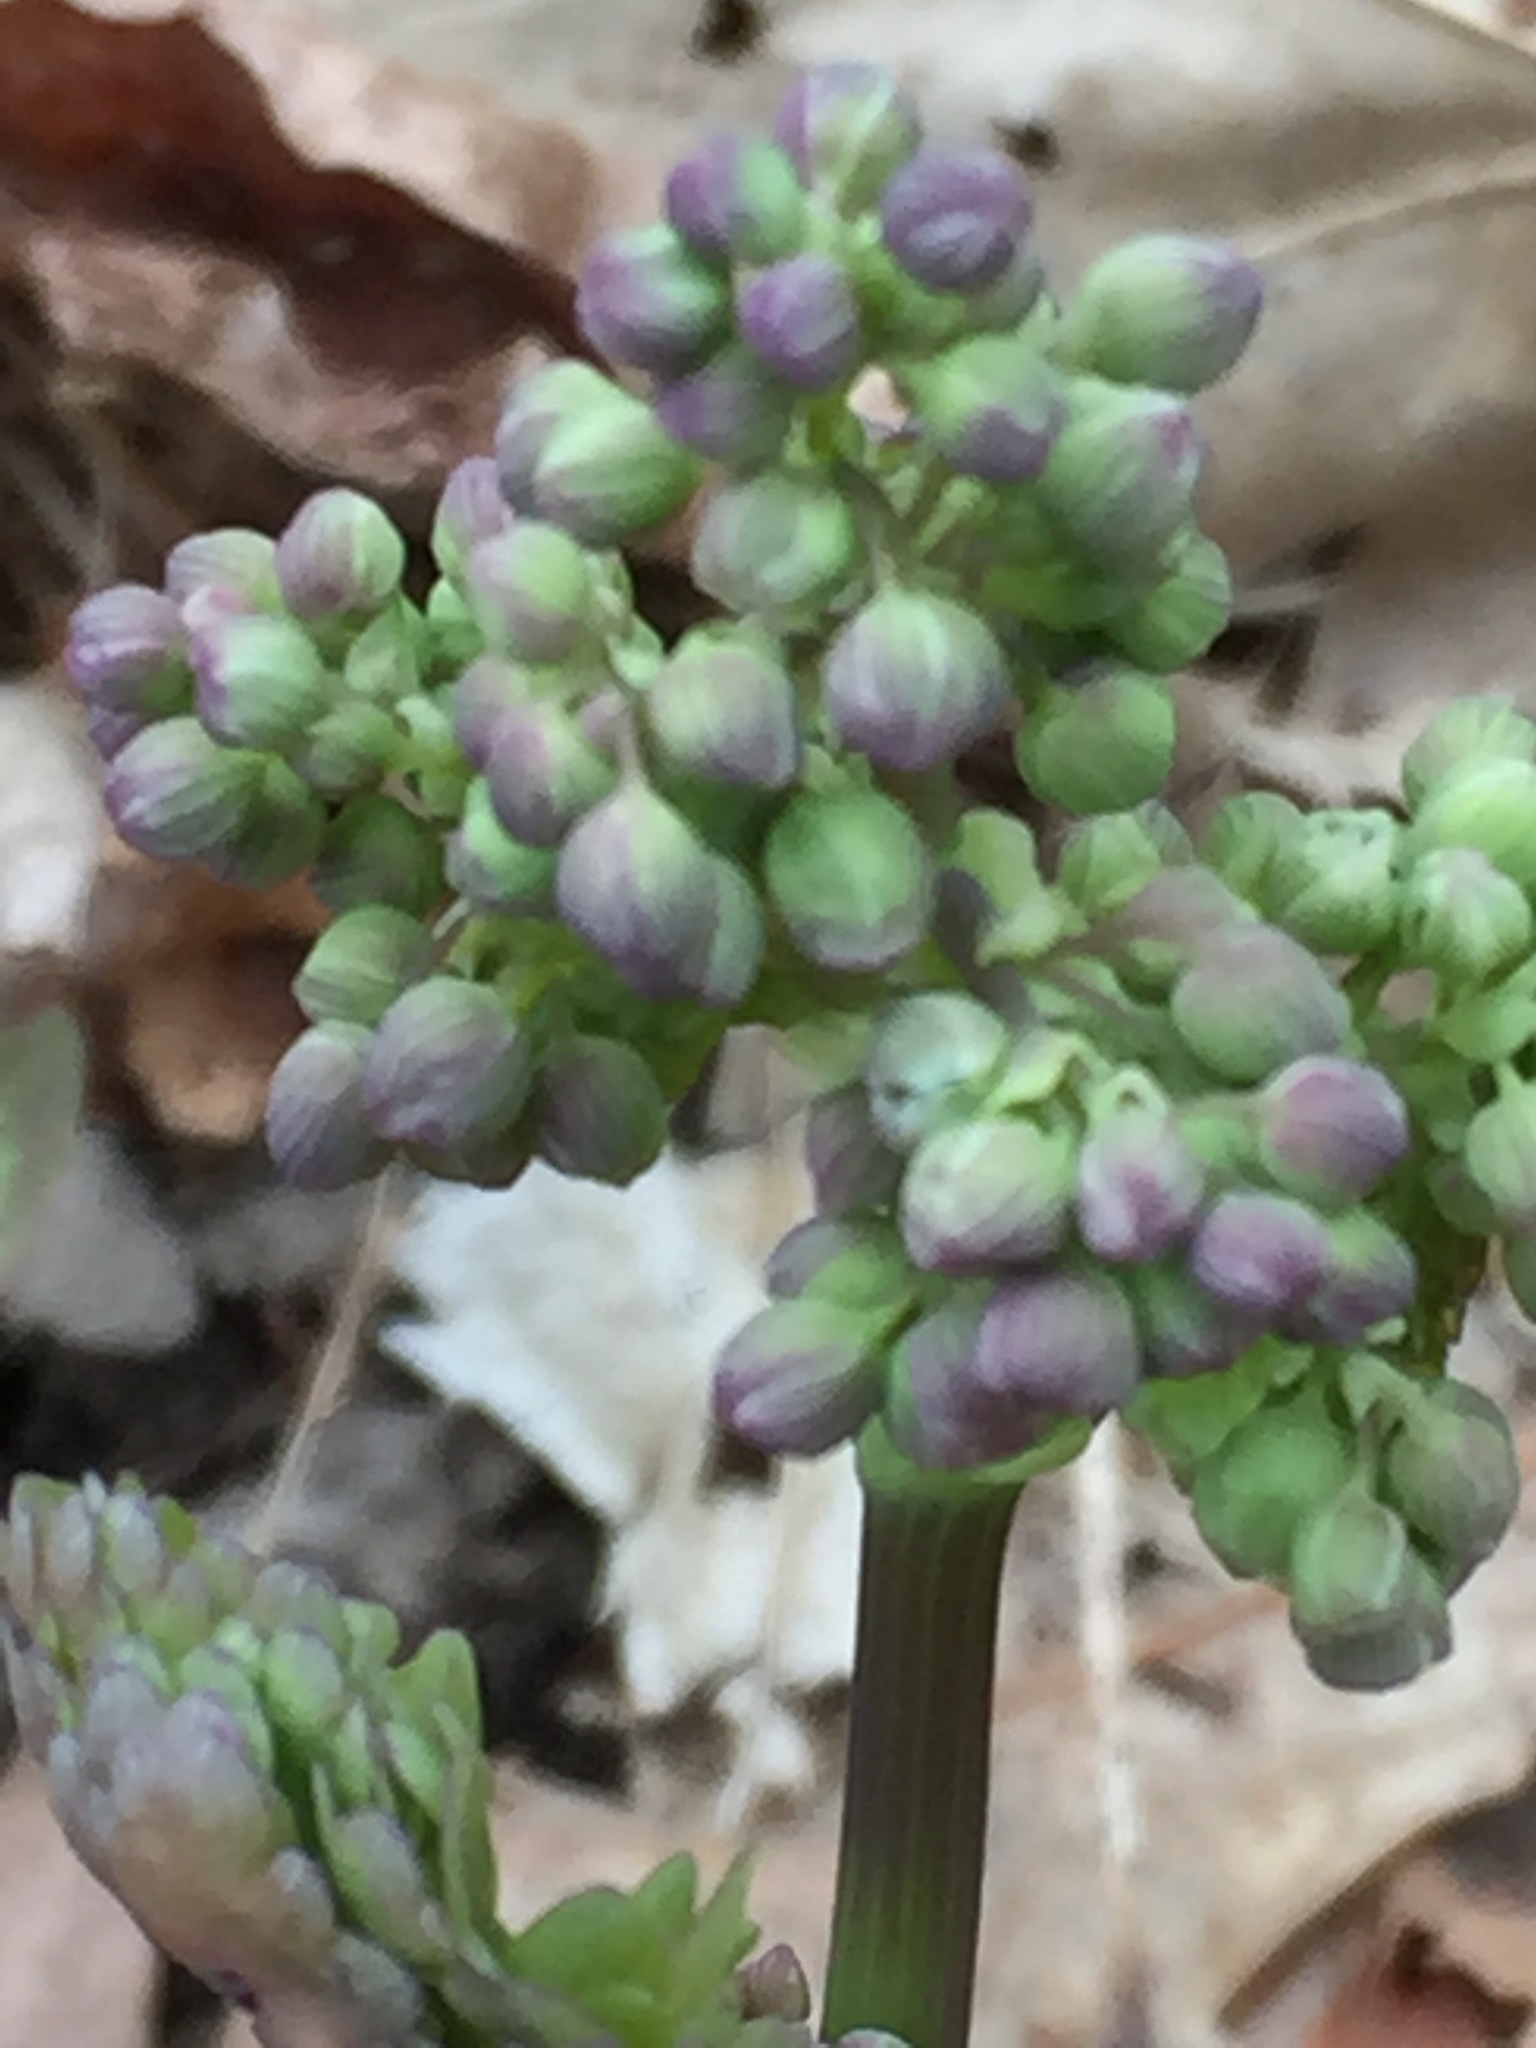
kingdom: Plantae
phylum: Tracheophyta
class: Magnoliopsida
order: Ranunculales
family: Ranunculaceae
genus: Thalictrum
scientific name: Thalictrum dioicum
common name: Early meadow-rue
